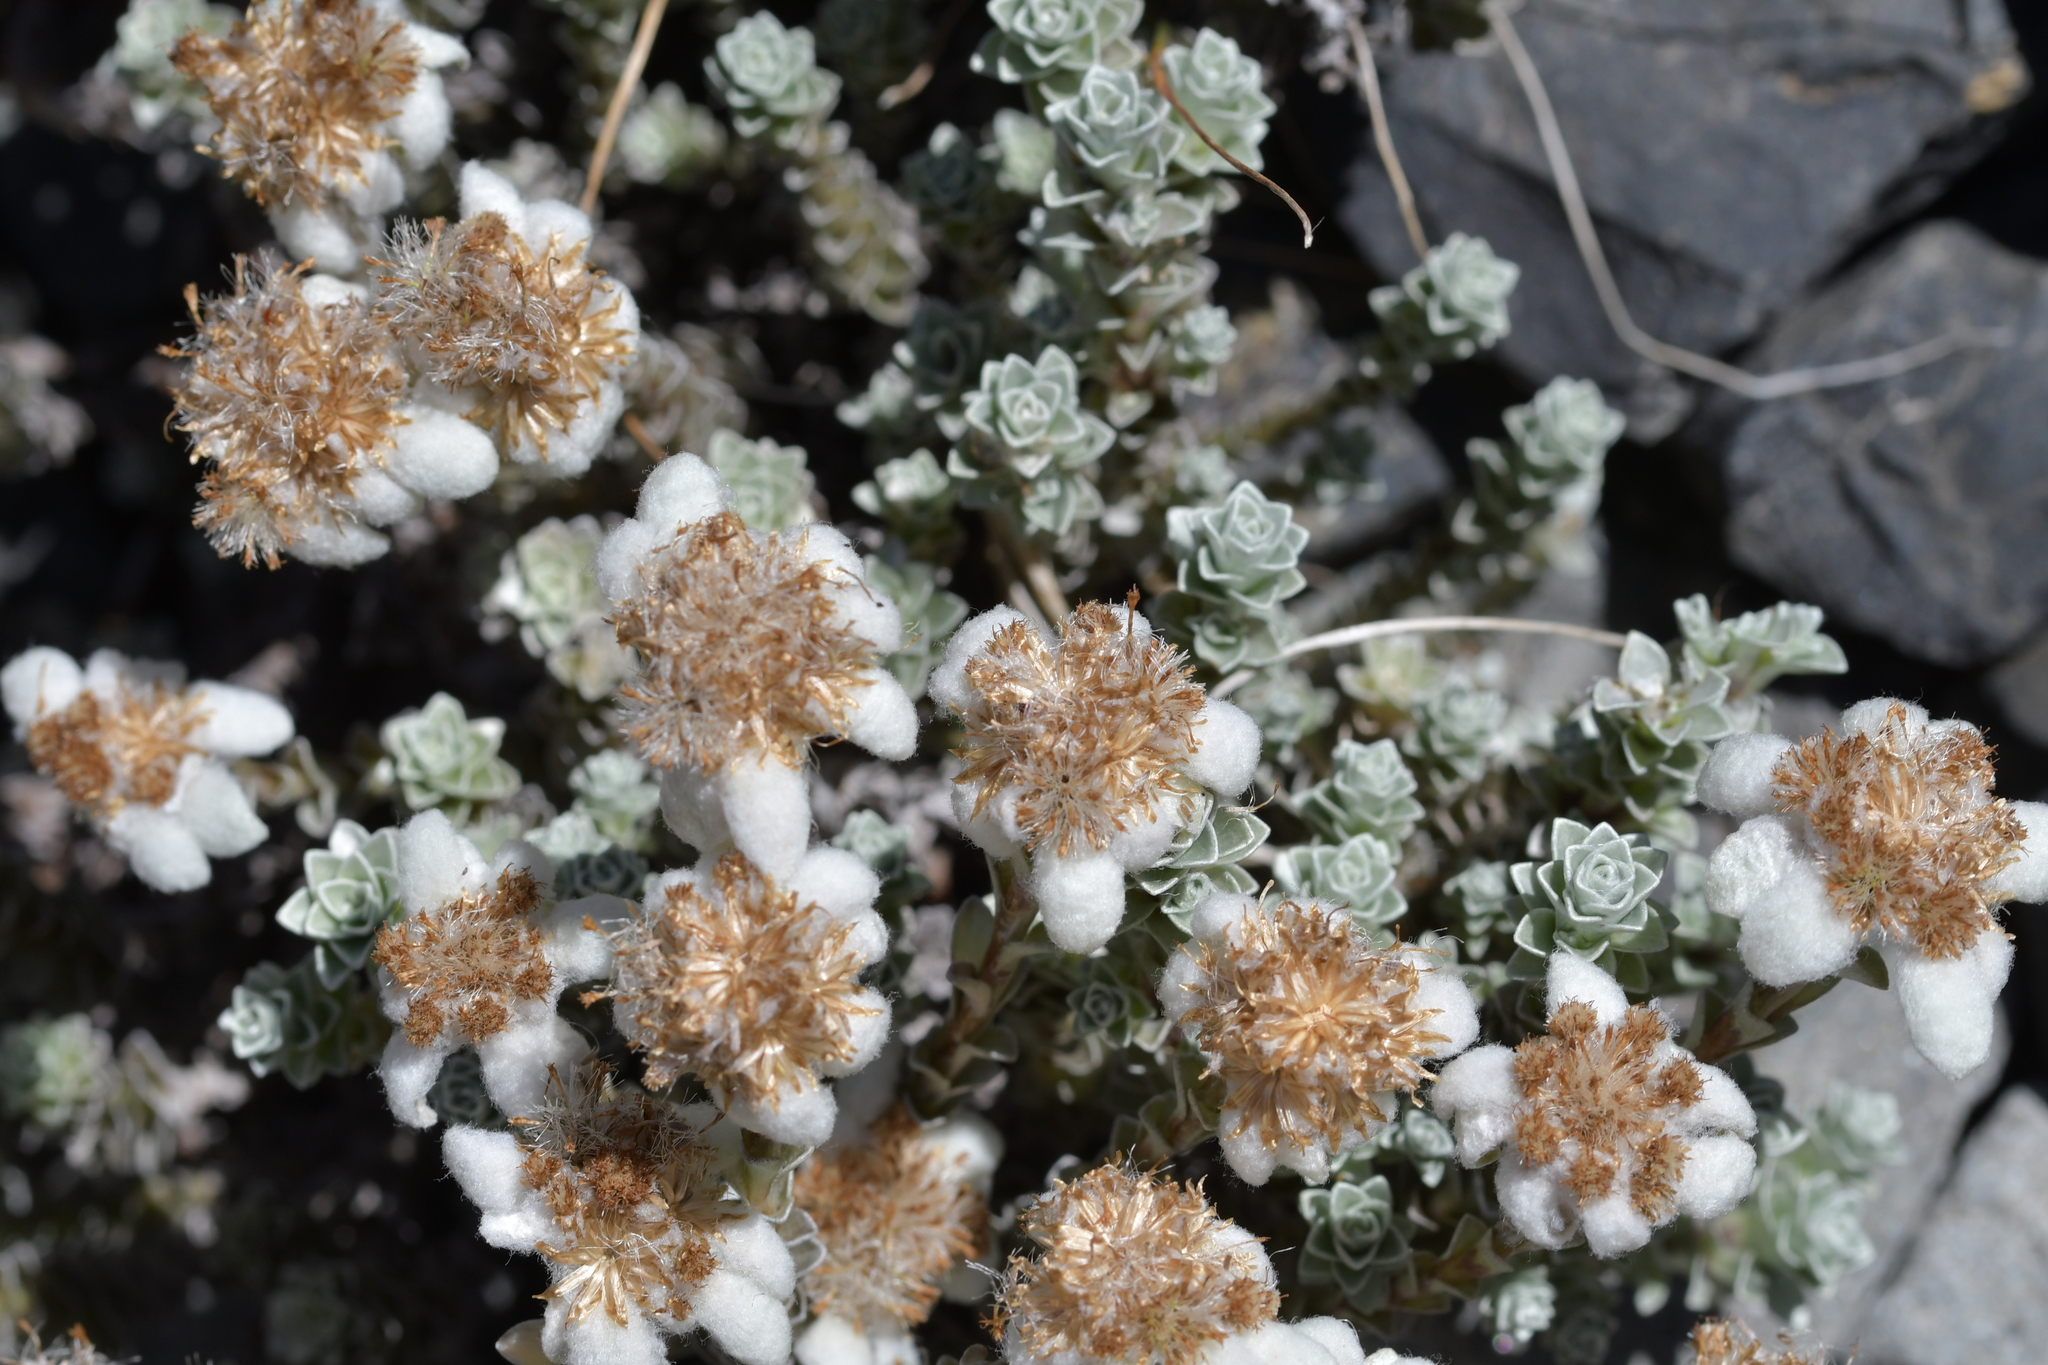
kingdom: Plantae
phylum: Tracheophyta
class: Magnoliopsida
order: Asterales
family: Asteraceae
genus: Leucogenes
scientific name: Leucogenes grandiceps
